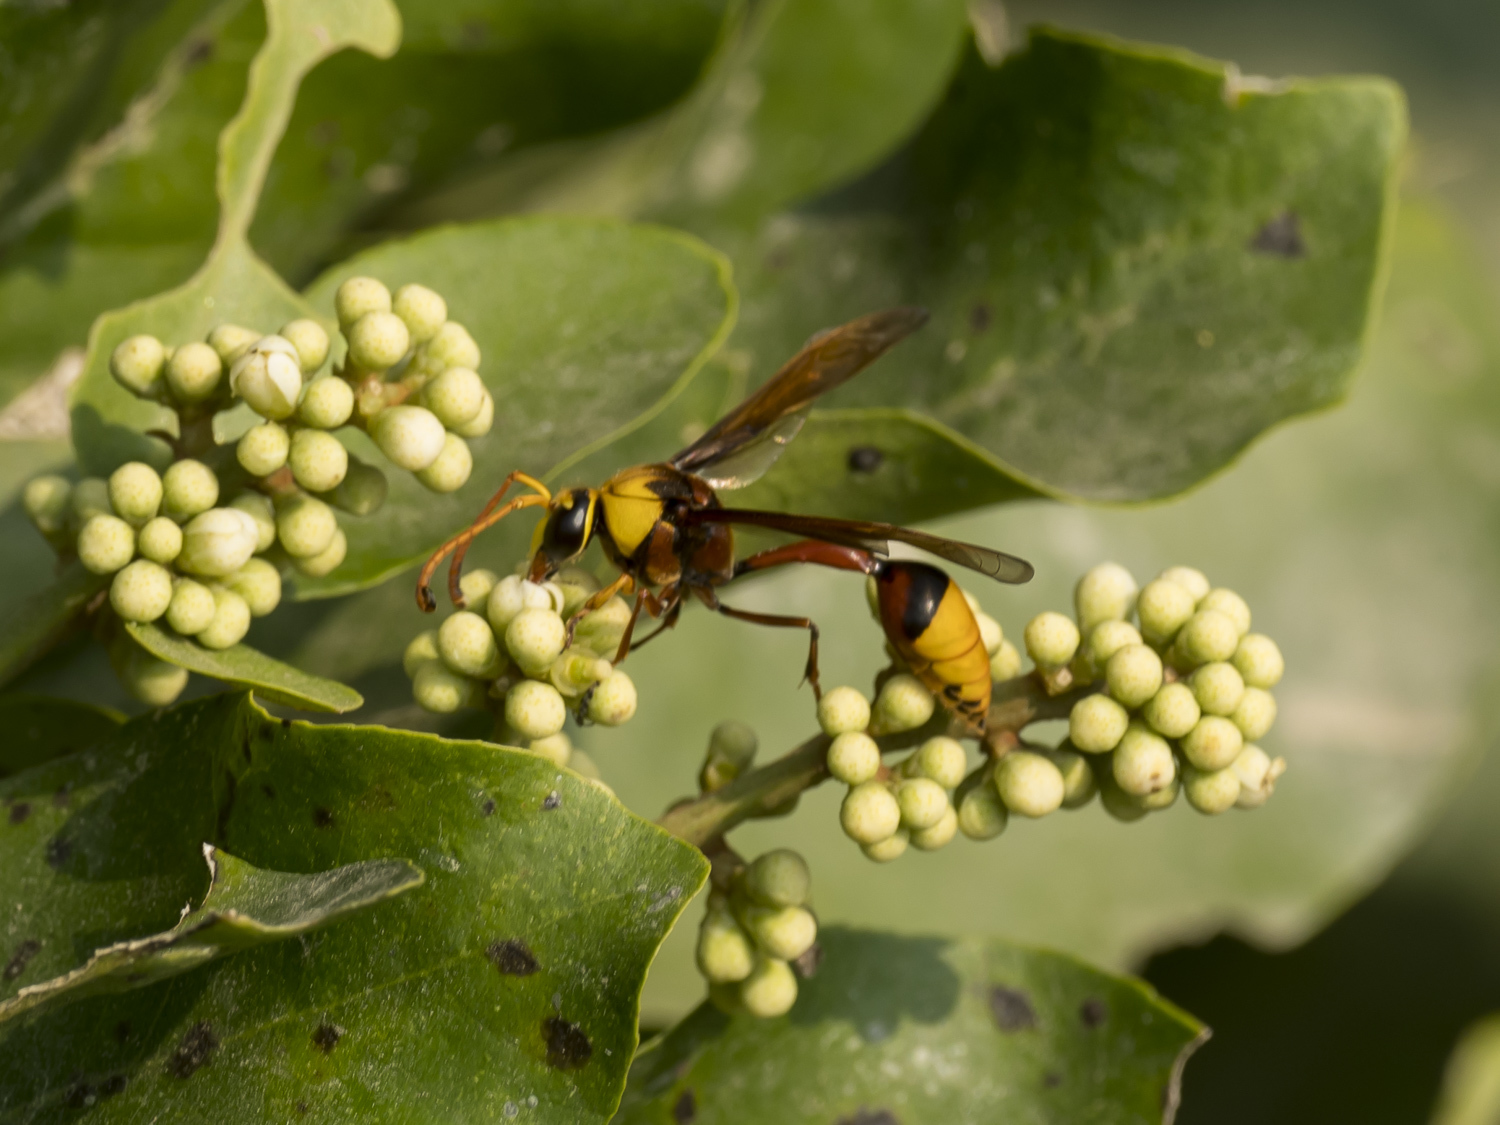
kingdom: Animalia
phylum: Arthropoda
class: Insecta
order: Hymenoptera
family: Eumenidae
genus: Delta
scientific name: Delta pyriforme
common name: Wasp
